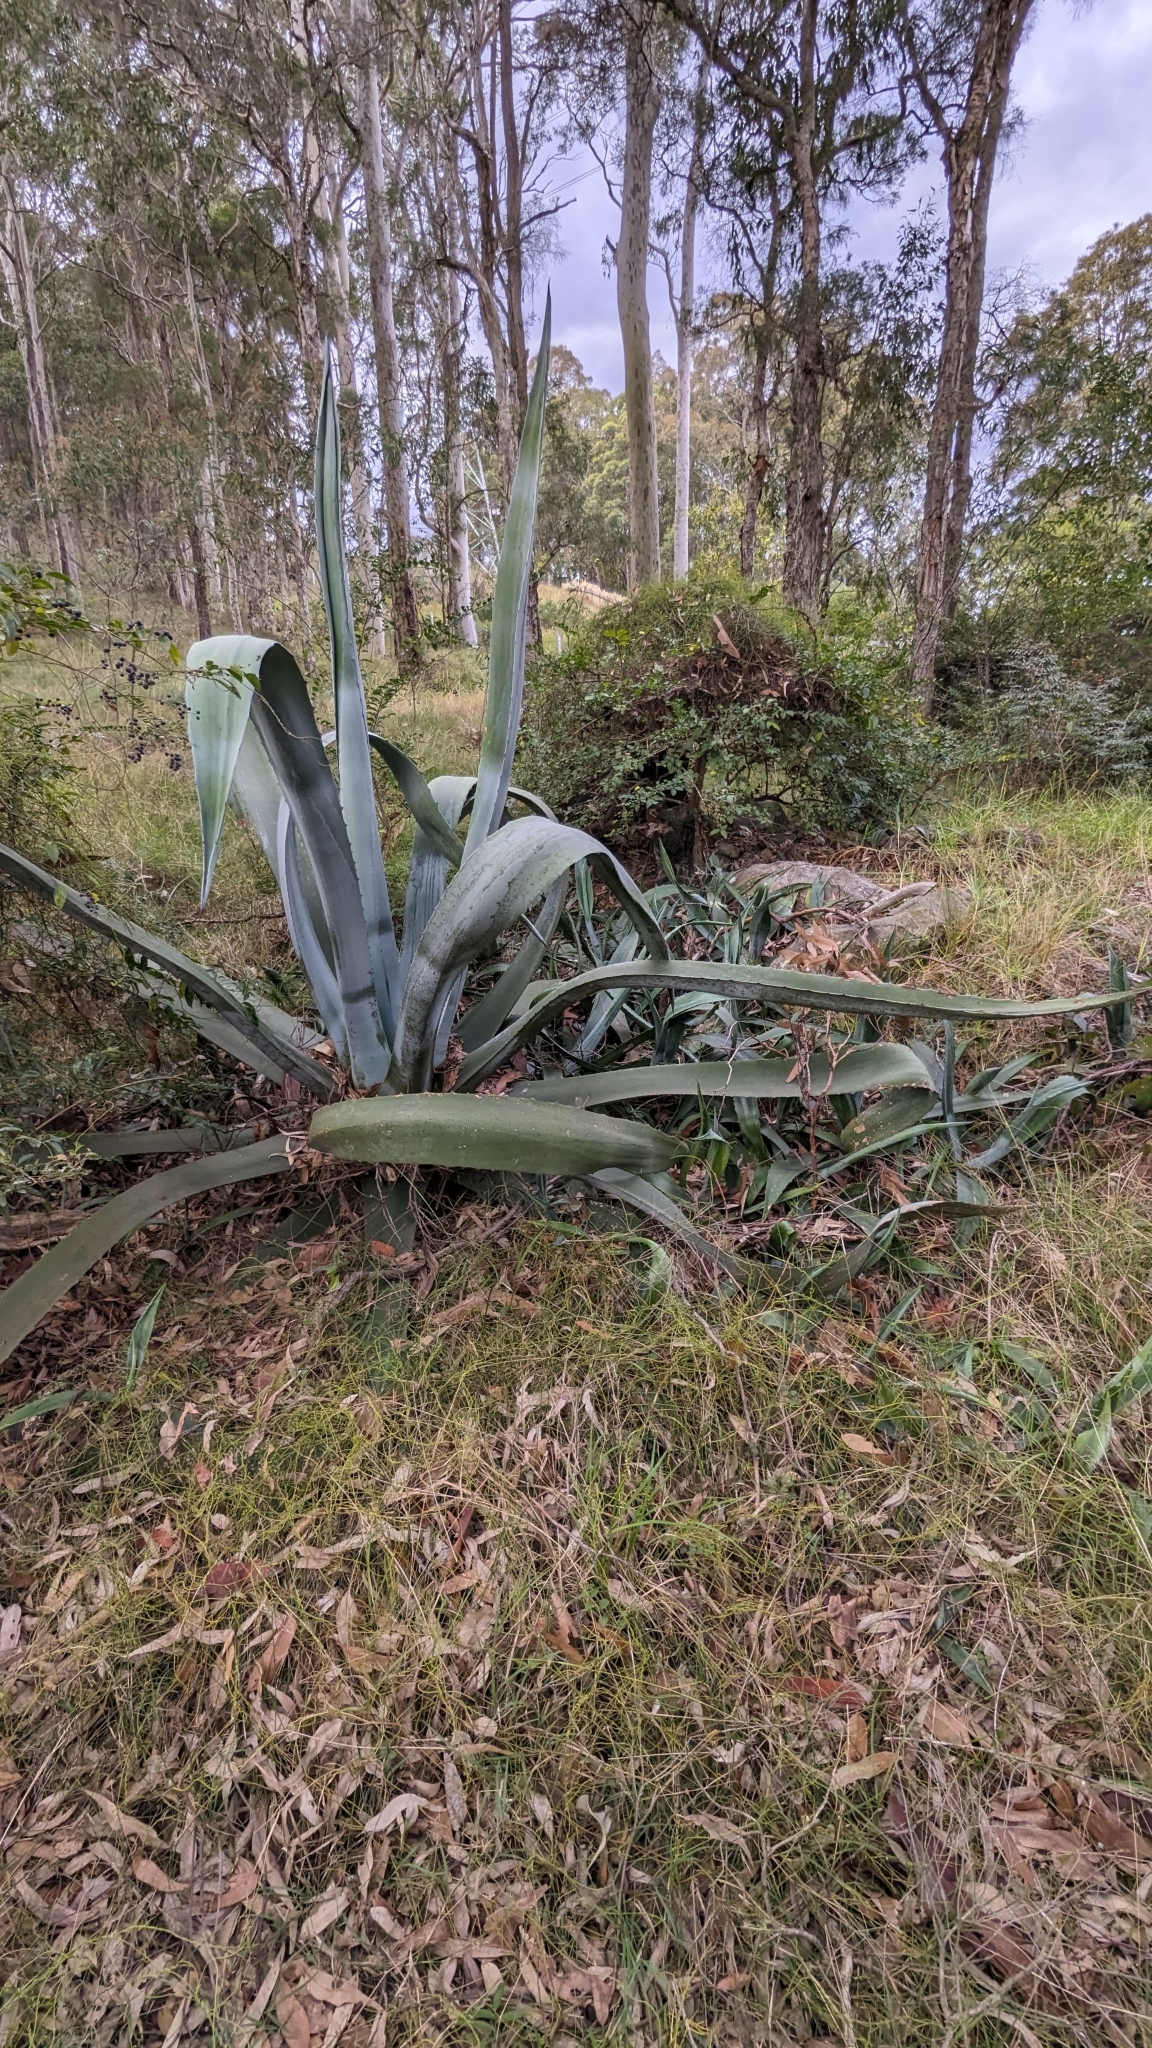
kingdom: Plantae
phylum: Tracheophyta
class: Liliopsida
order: Asparagales
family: Asparagaceae
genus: Agave
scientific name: Agave americana
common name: Centuryplant
